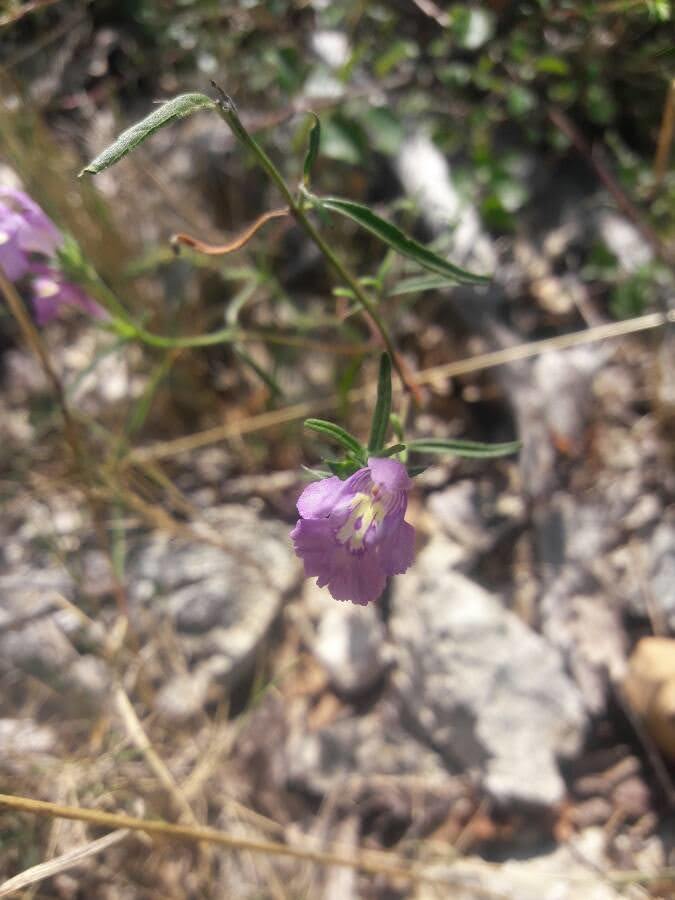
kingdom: Plantae
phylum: Tracheophyta
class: Magnoliopsida
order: Lamiales
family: Lamiaceae
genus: Galeopsis
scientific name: Galeopsis angustifolia
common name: Red hemp-nettle
